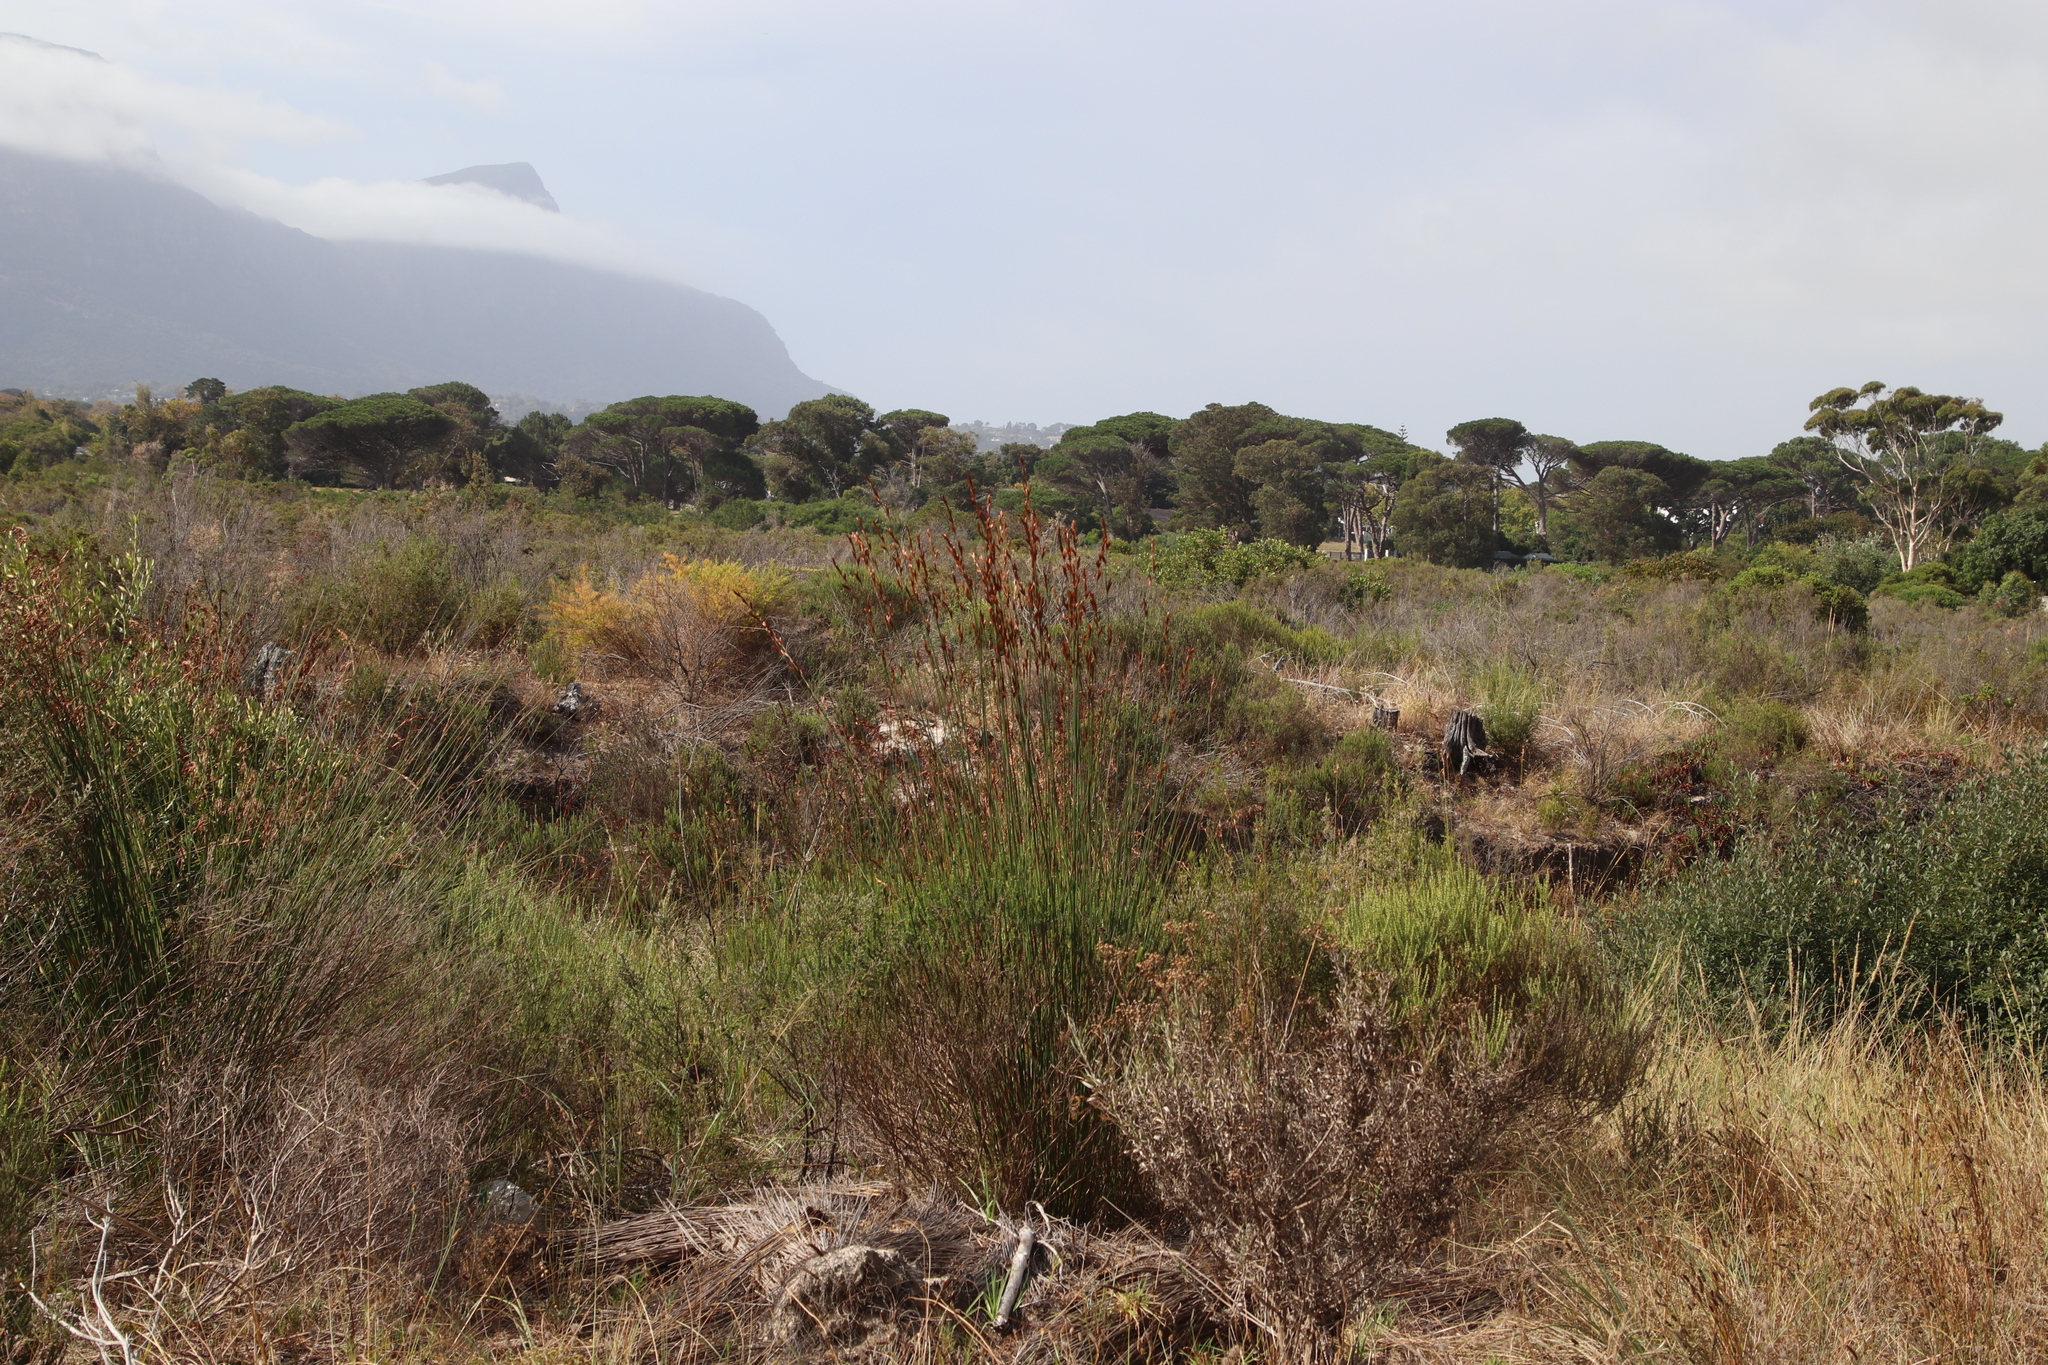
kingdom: Plantae
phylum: Tracheophyta
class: Liliopsida
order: Poales
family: Restionaceae
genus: Thamnochortus
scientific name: Thamnochortus insignis
